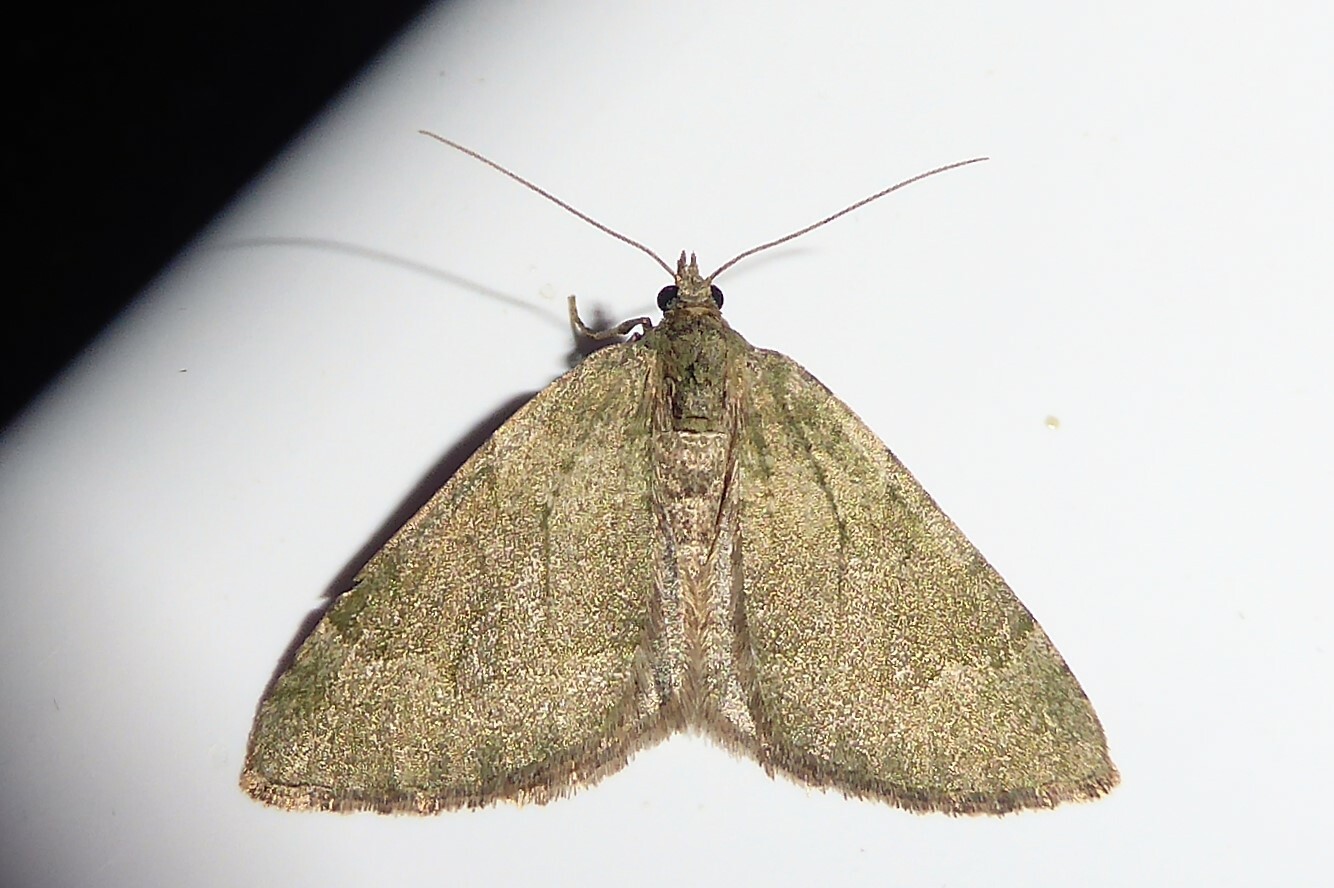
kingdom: Animalia
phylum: Arthropoda
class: Insecta
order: Lepidoptera
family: Geometridae
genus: Epyaxa
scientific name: Epyaxa rosearia
